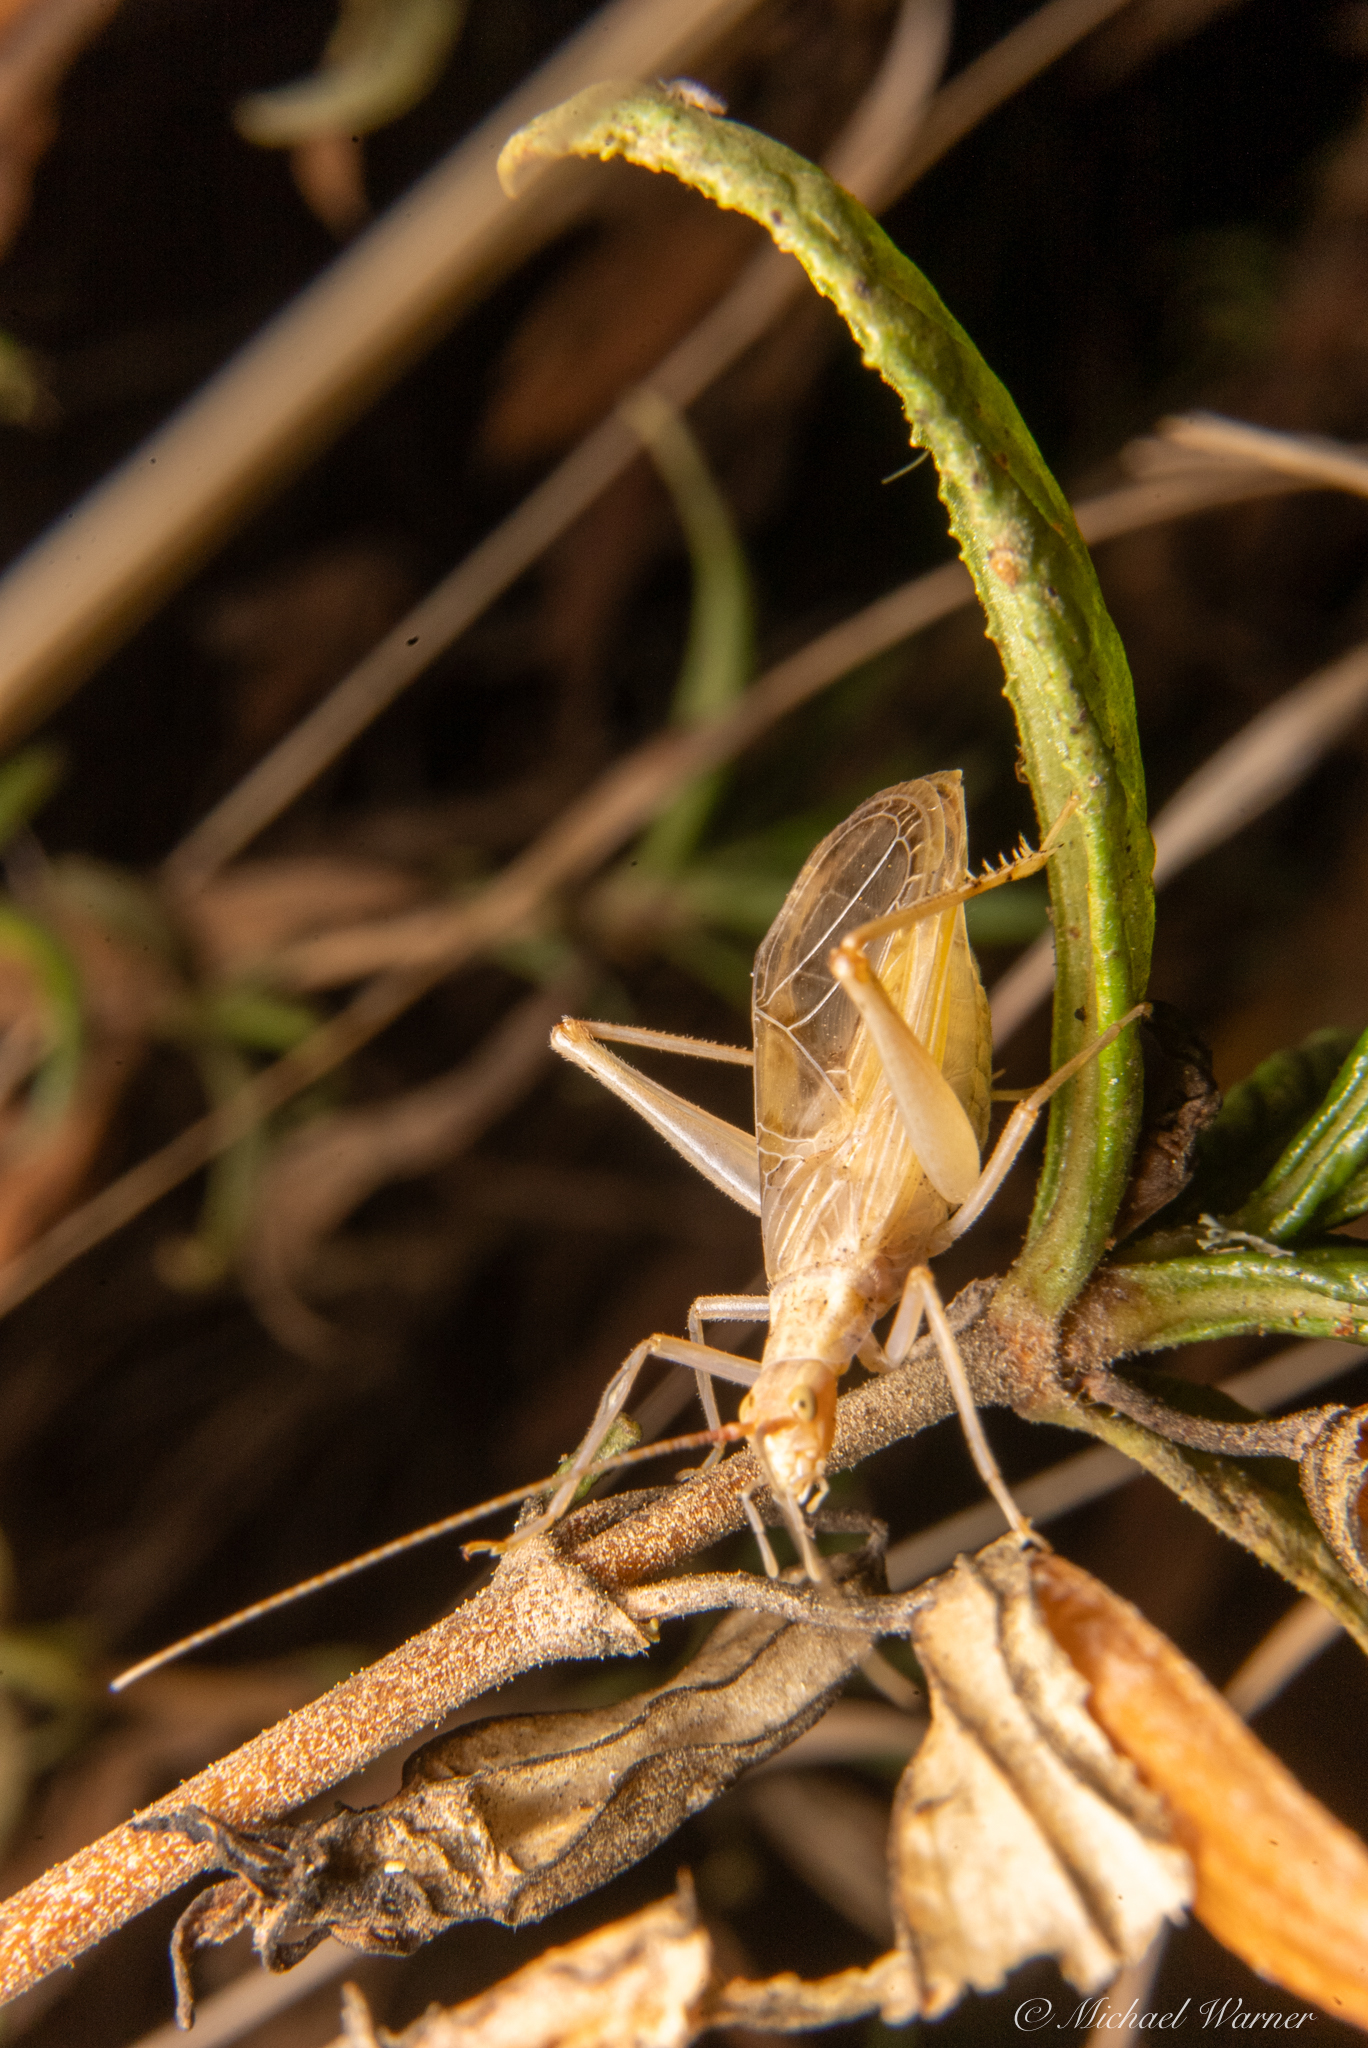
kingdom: Animalia
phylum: Arthropoda
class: Insecta
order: Orthoptera
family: Gryllidae
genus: Oecanthus
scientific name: Oecanthus californicus
